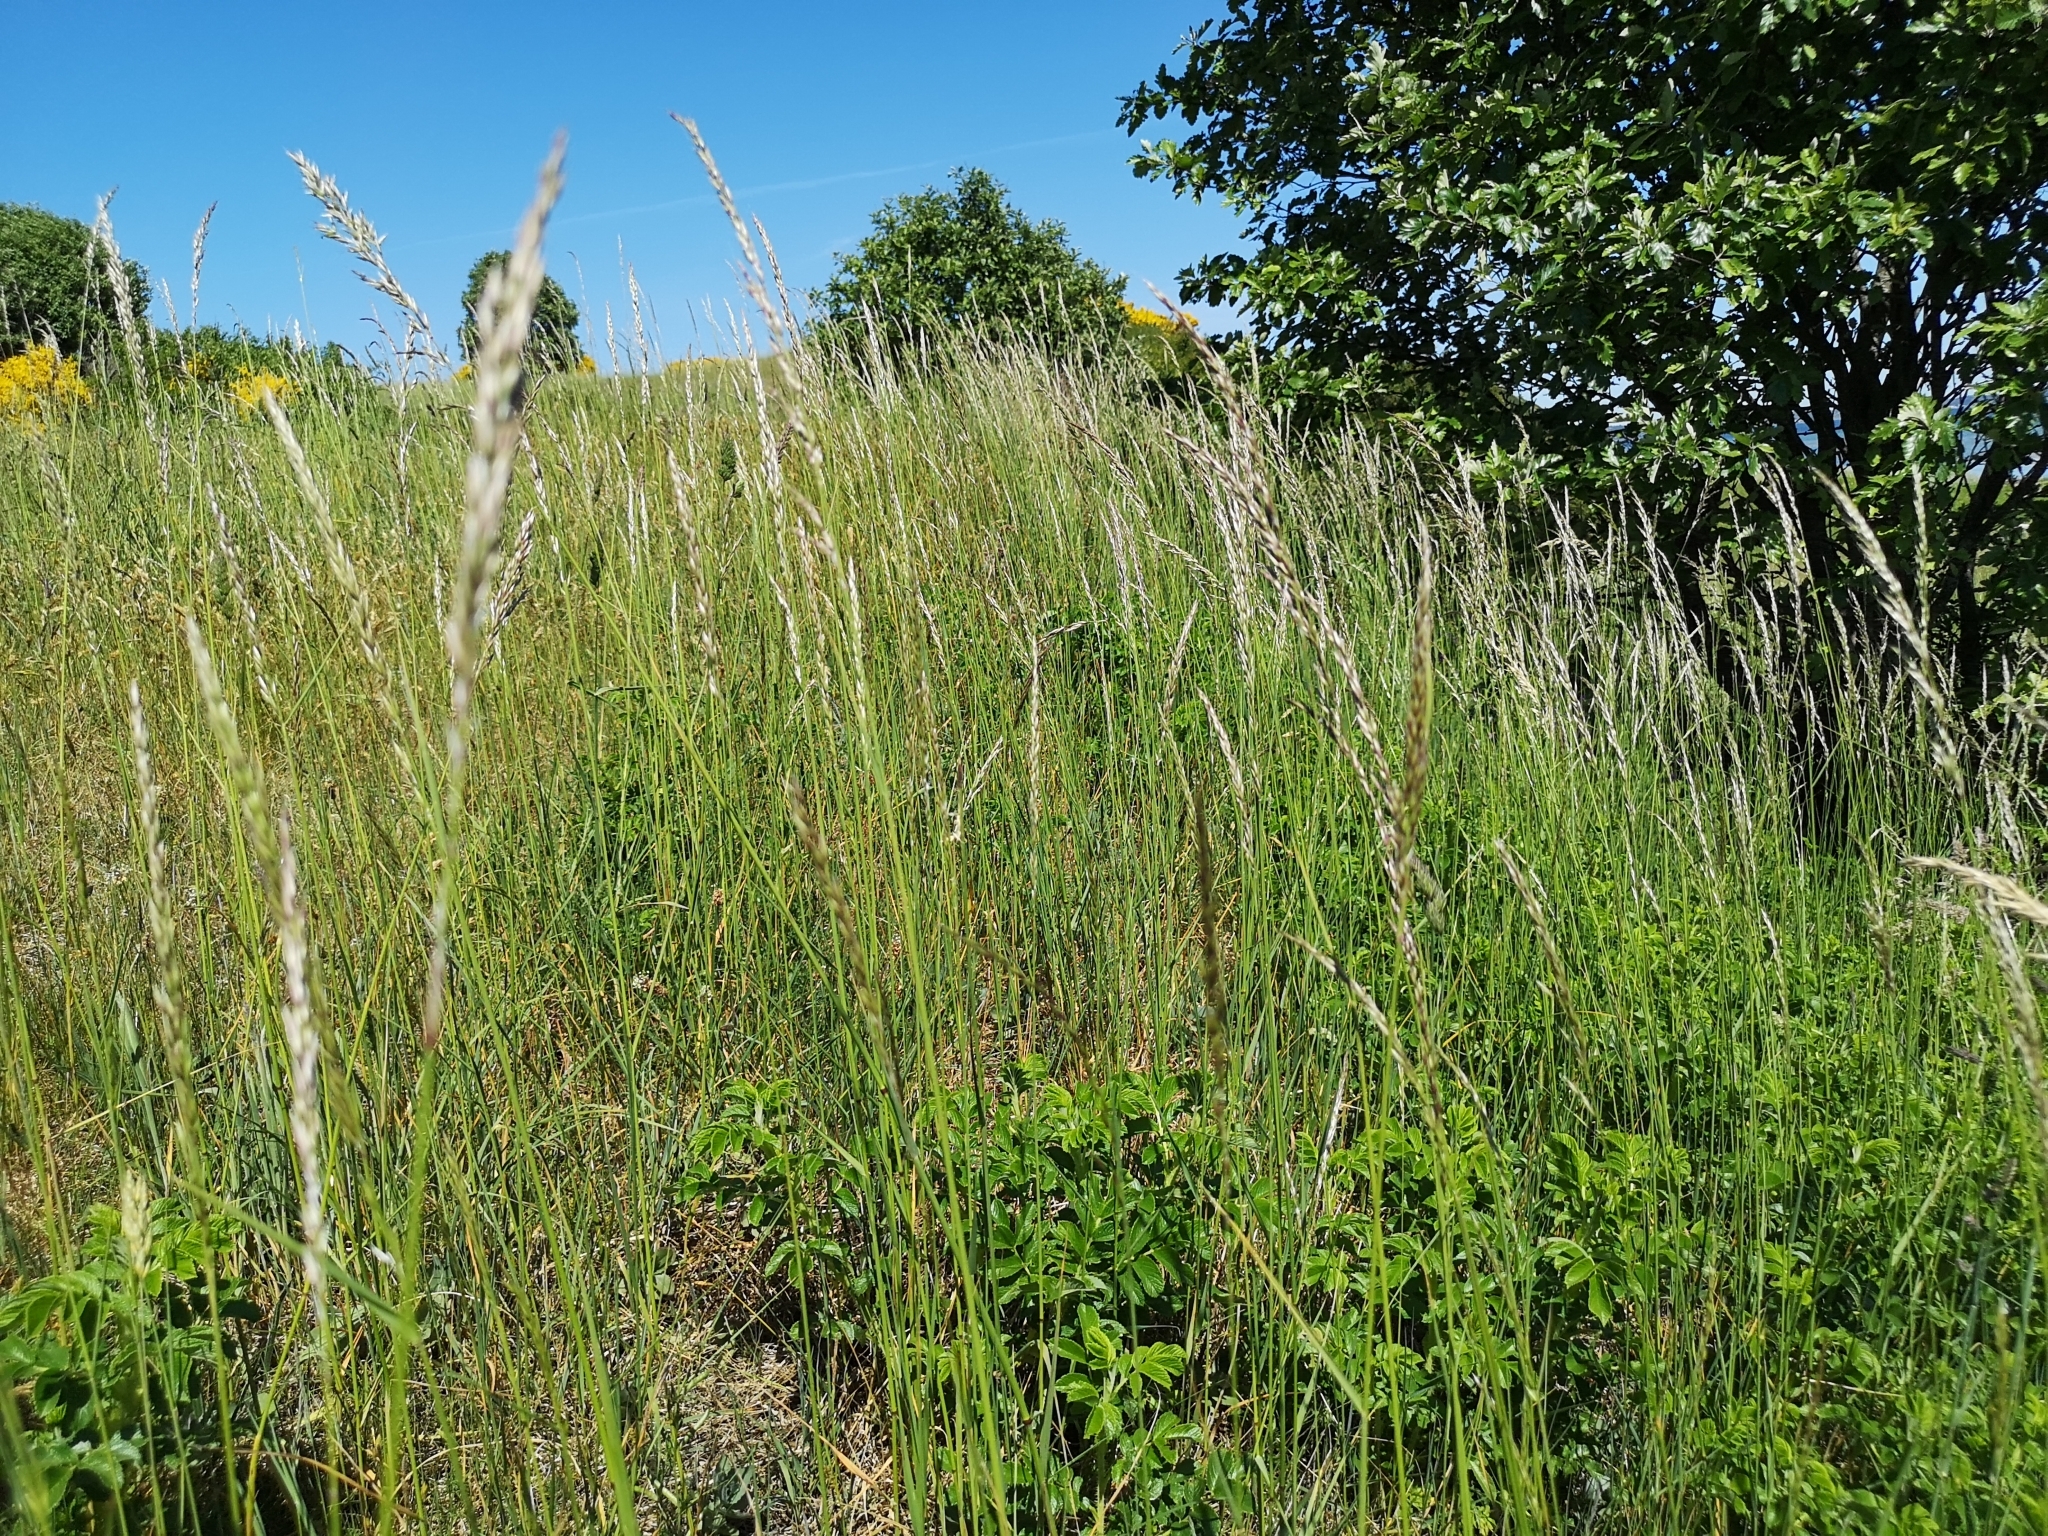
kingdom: Plantae
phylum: Tracheophyta
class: Liliopsida
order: Poales
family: Poaceae
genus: Arrhenatherum
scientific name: Arrhenatherum elatius
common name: Tall oatgrass
